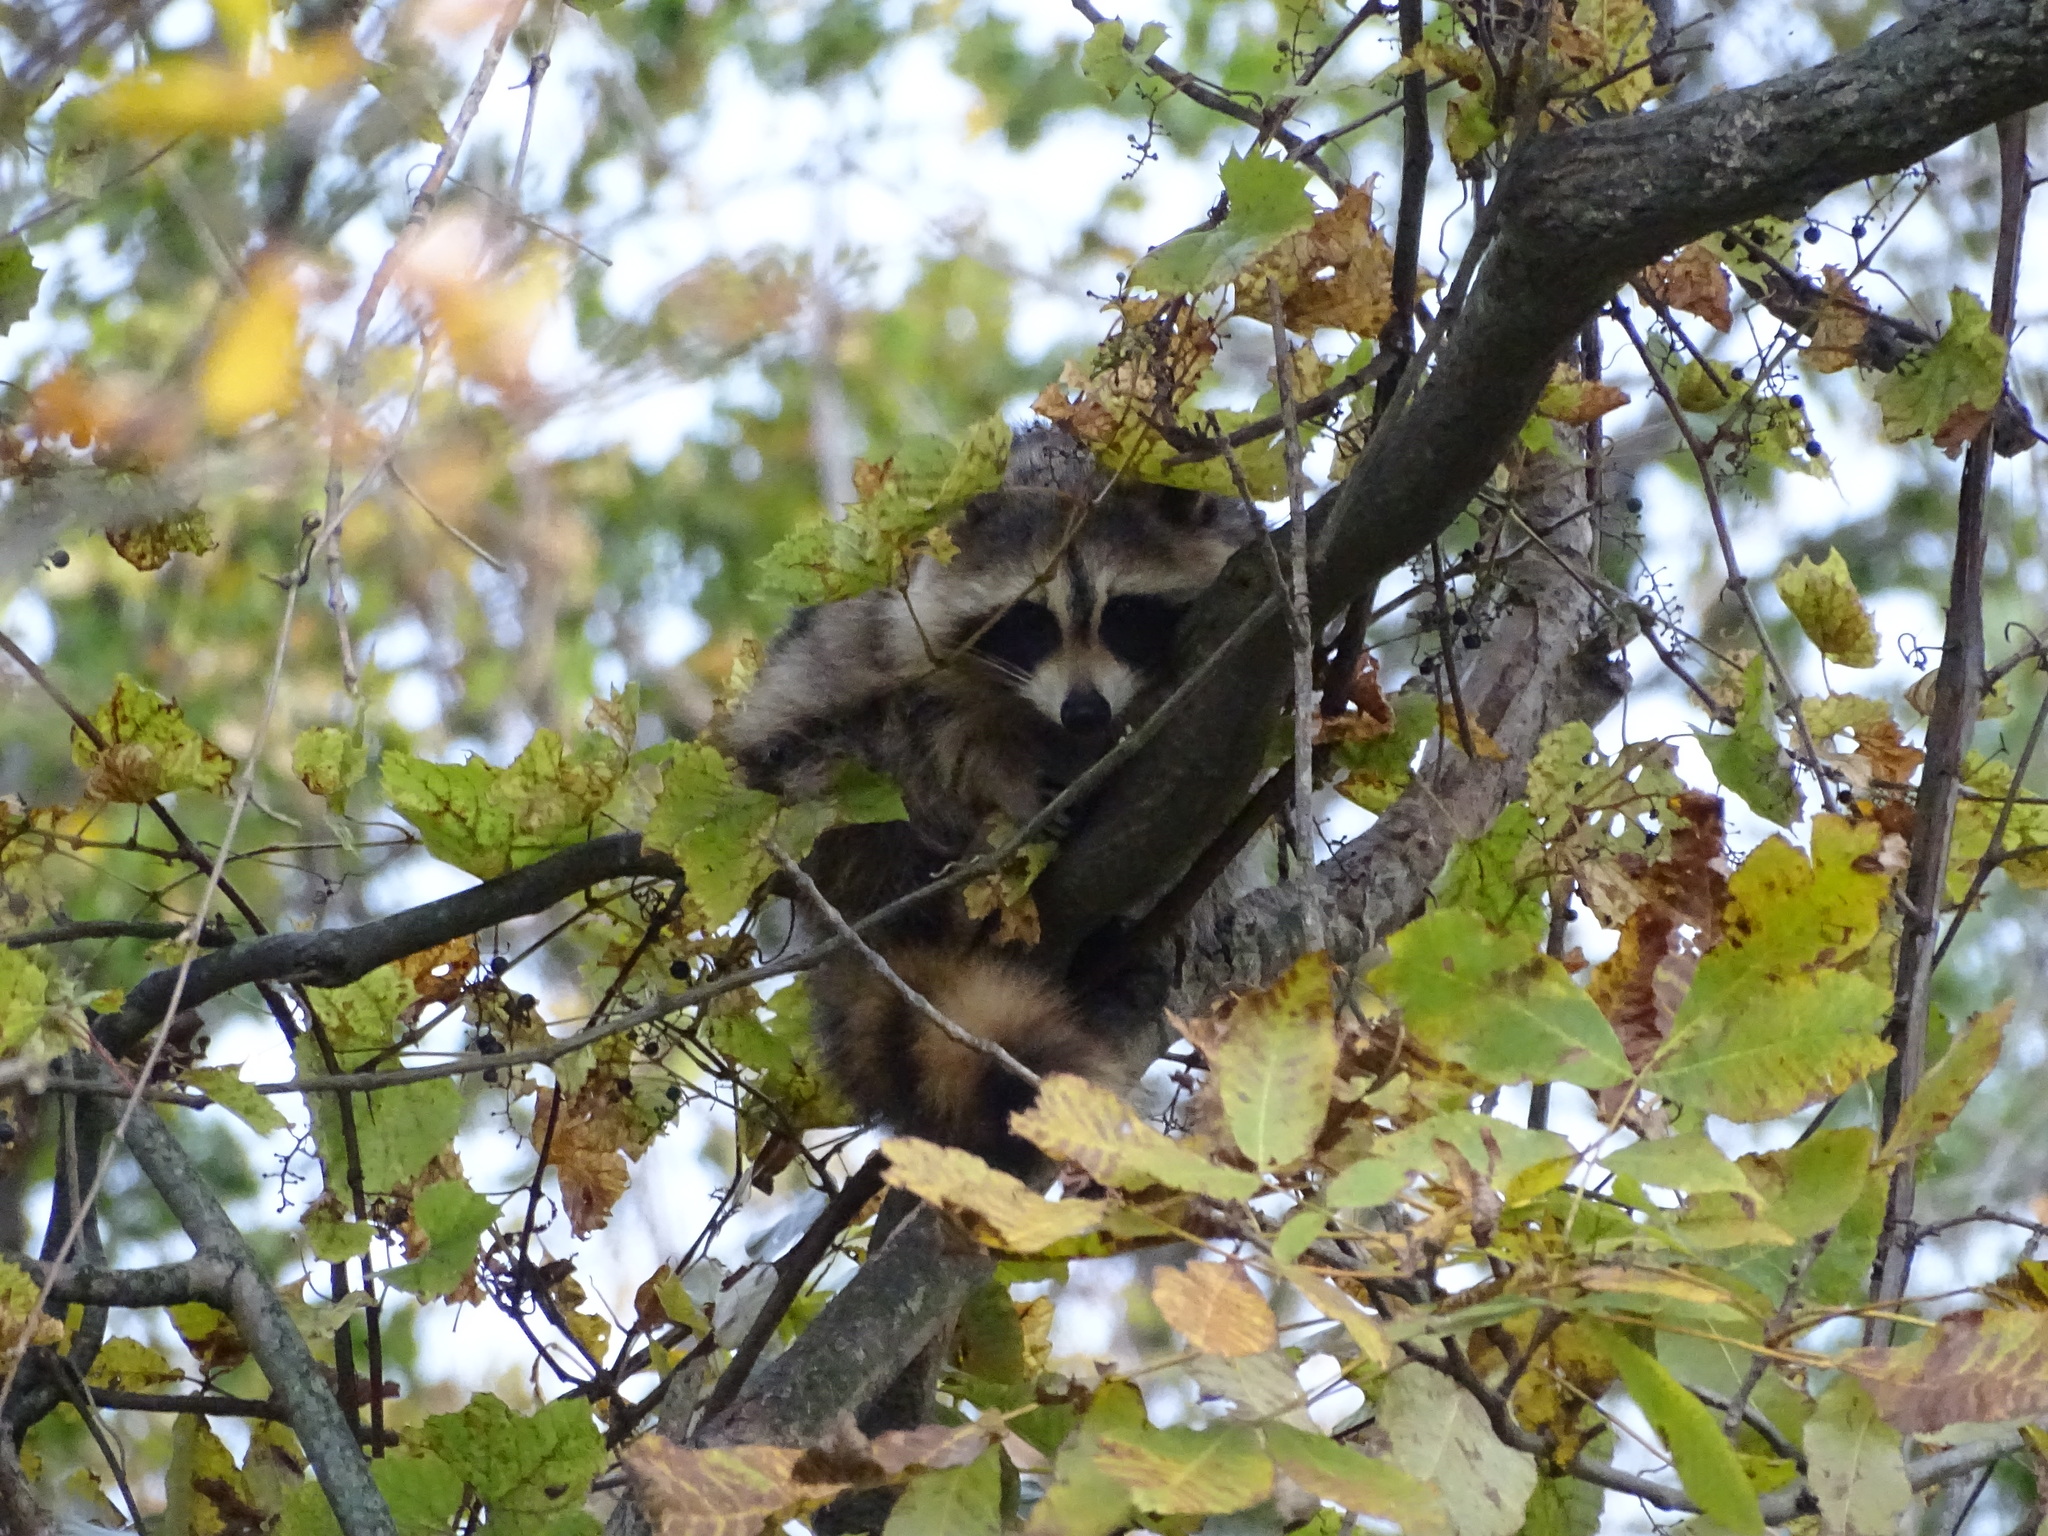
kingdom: Animalia
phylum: Chordata
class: Mammalia
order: Carnivora
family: Procyonidae
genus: Procyon
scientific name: Procyon lotor
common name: Raccoon
